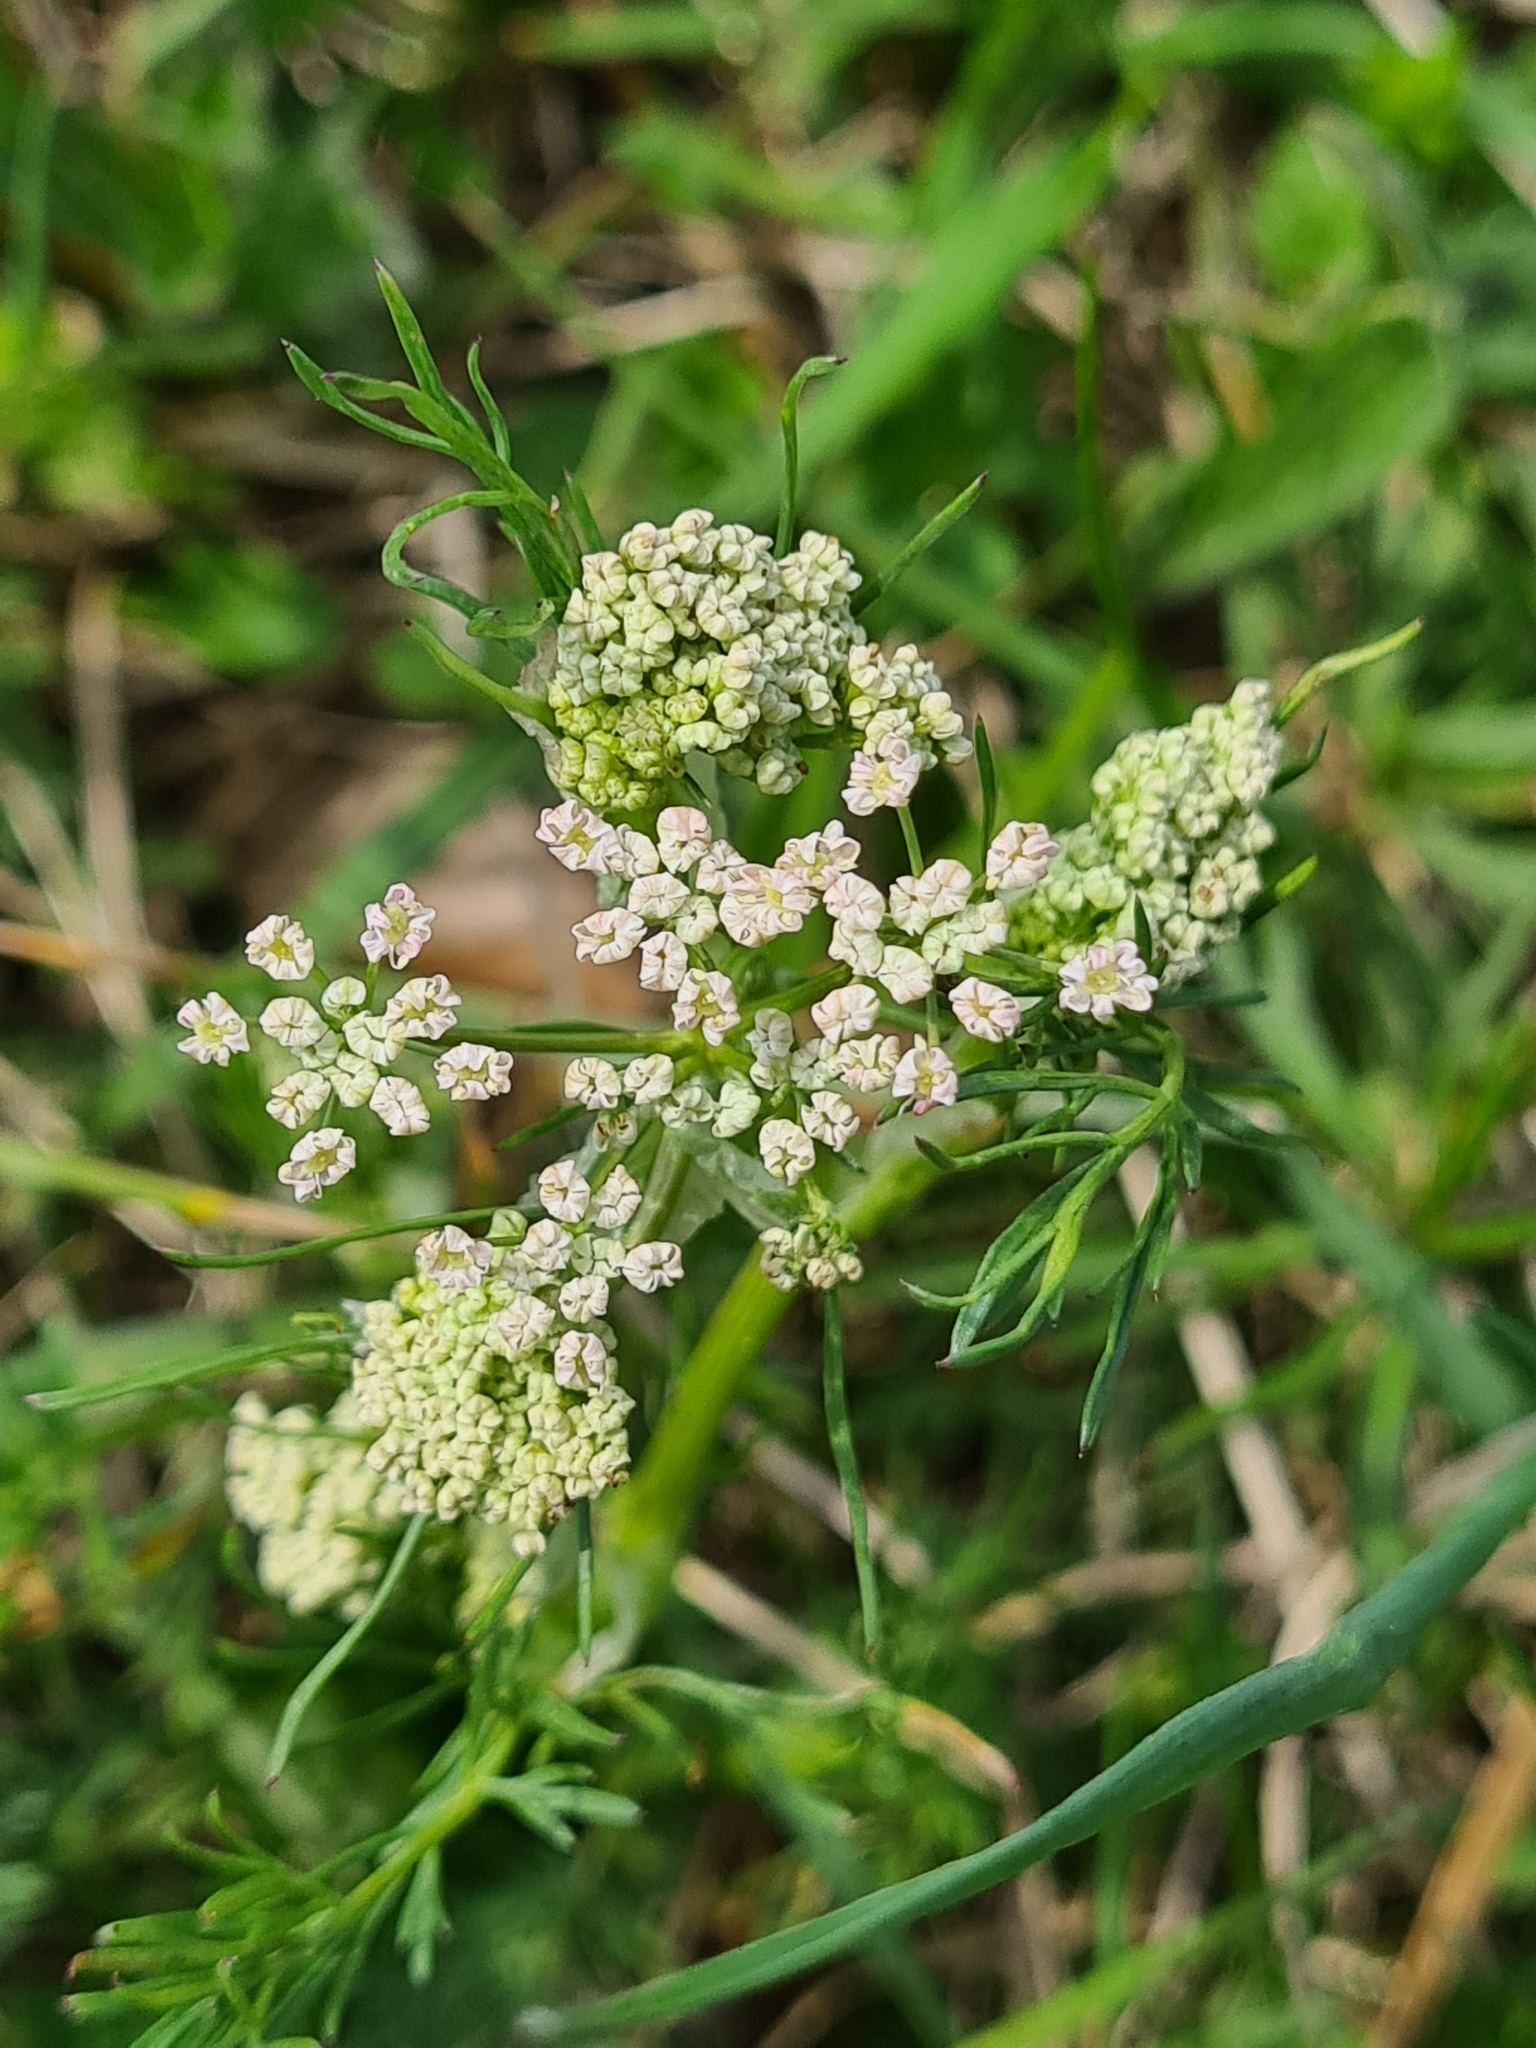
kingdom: Plantae
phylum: Tracheophyta
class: Magnoliopsida
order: Apiales
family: Apiaceae
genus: Carum
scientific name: Carum carvi
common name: Caraway
